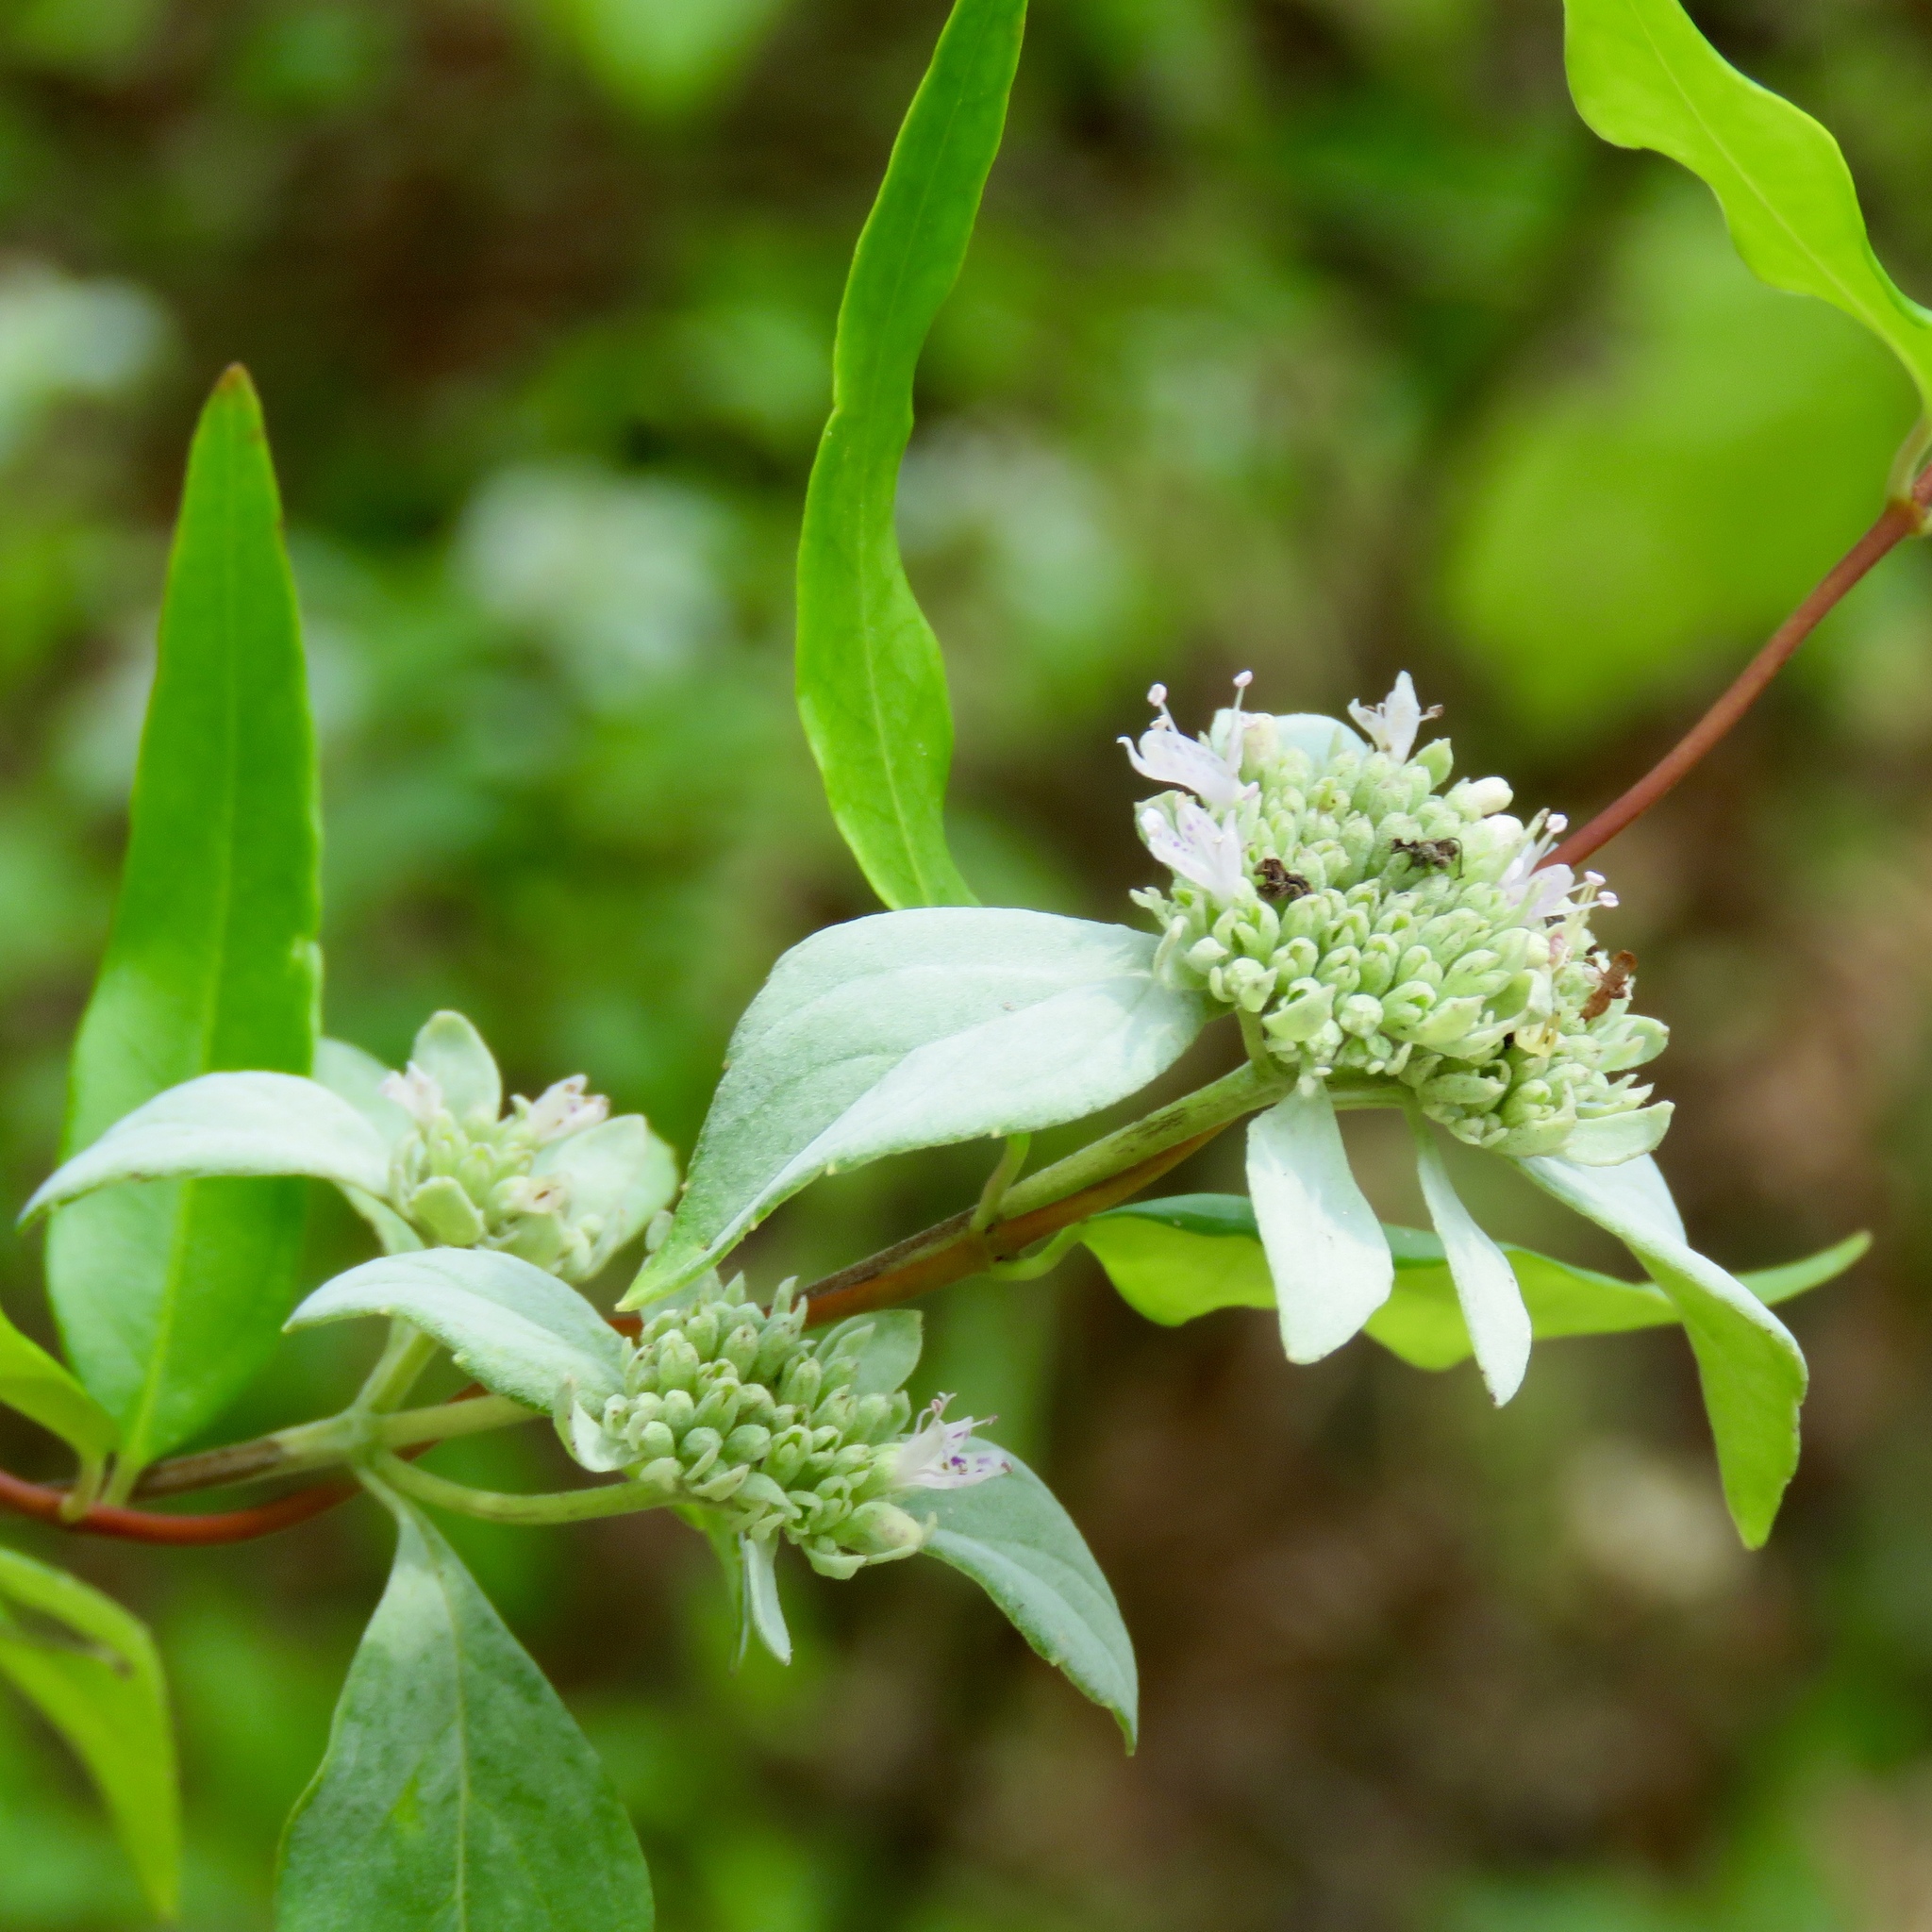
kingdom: Plantae
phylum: Tracheophyta
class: Magnoliopsida
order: Lamiales
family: Lamiaceae
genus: Pycnanthemum
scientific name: Pycnanthemum albescens
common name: White-leaf mountain-mint
